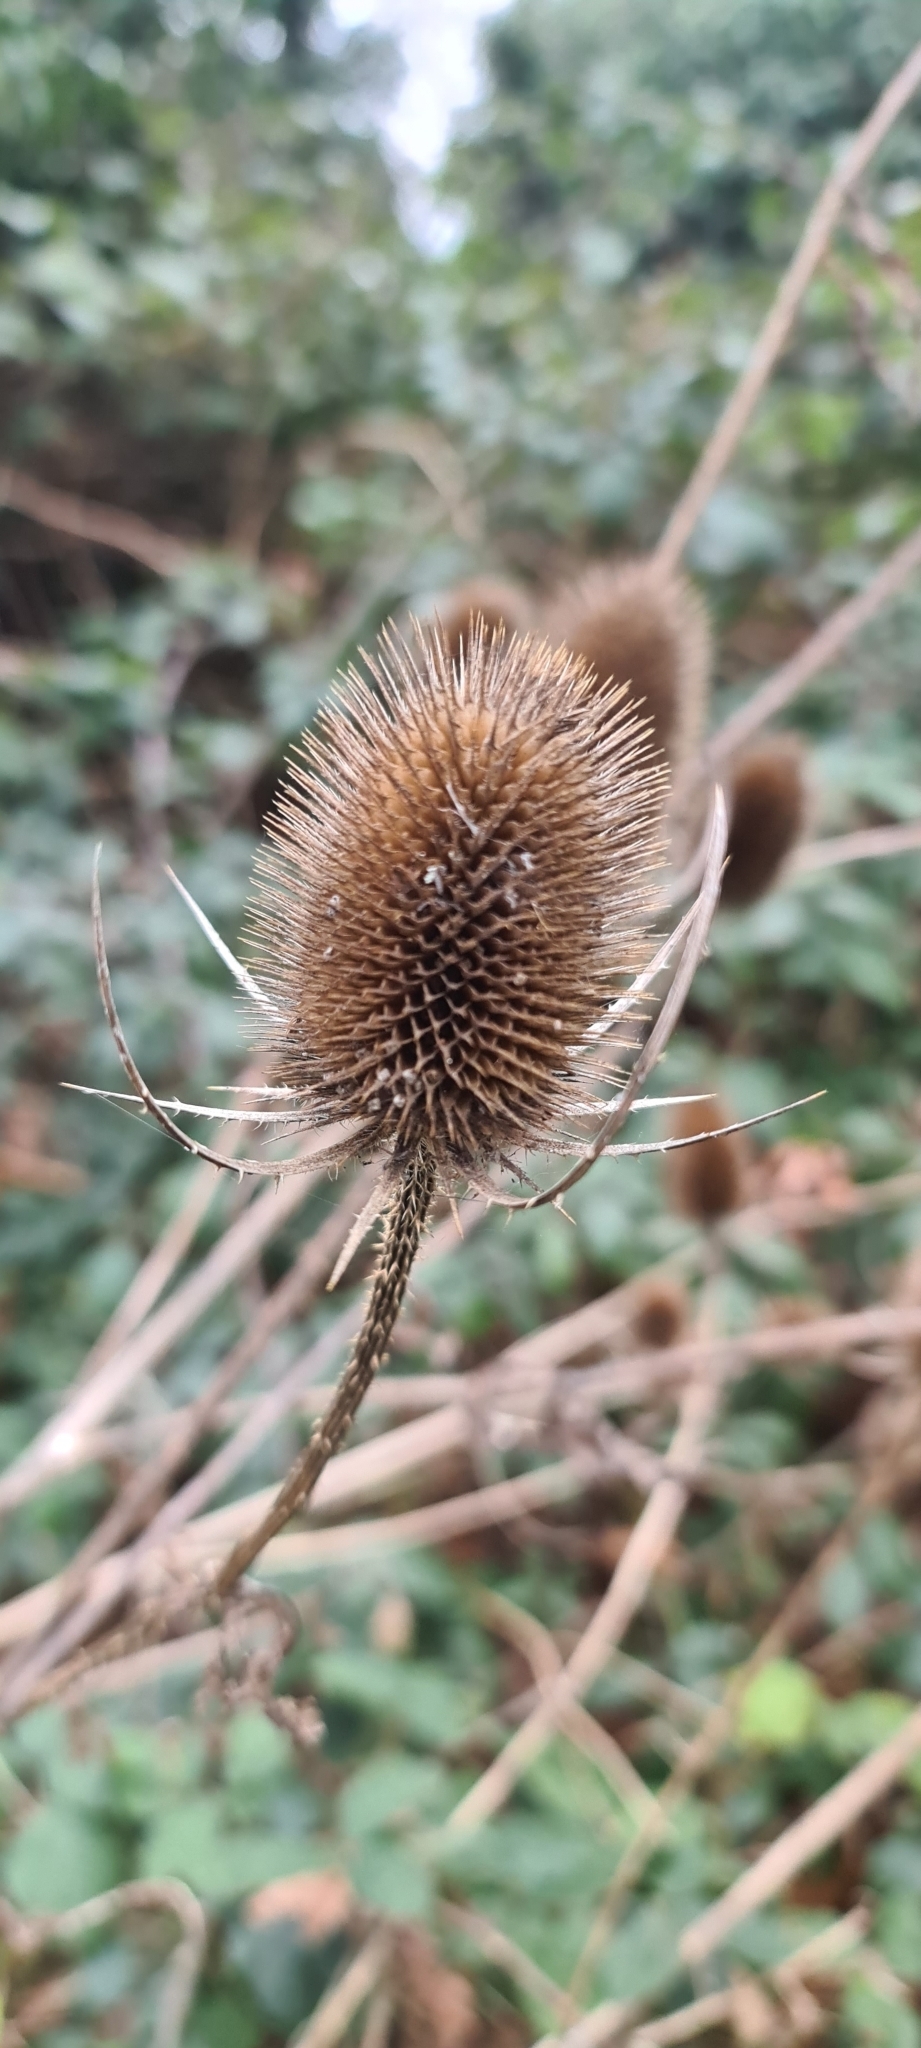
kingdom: Plantae
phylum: Tracheophyta
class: Magnoliopsida
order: Dipsacales
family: Caprifoliaceae
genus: Dipsacus
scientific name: Dipsacus fullonum
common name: Teasel
